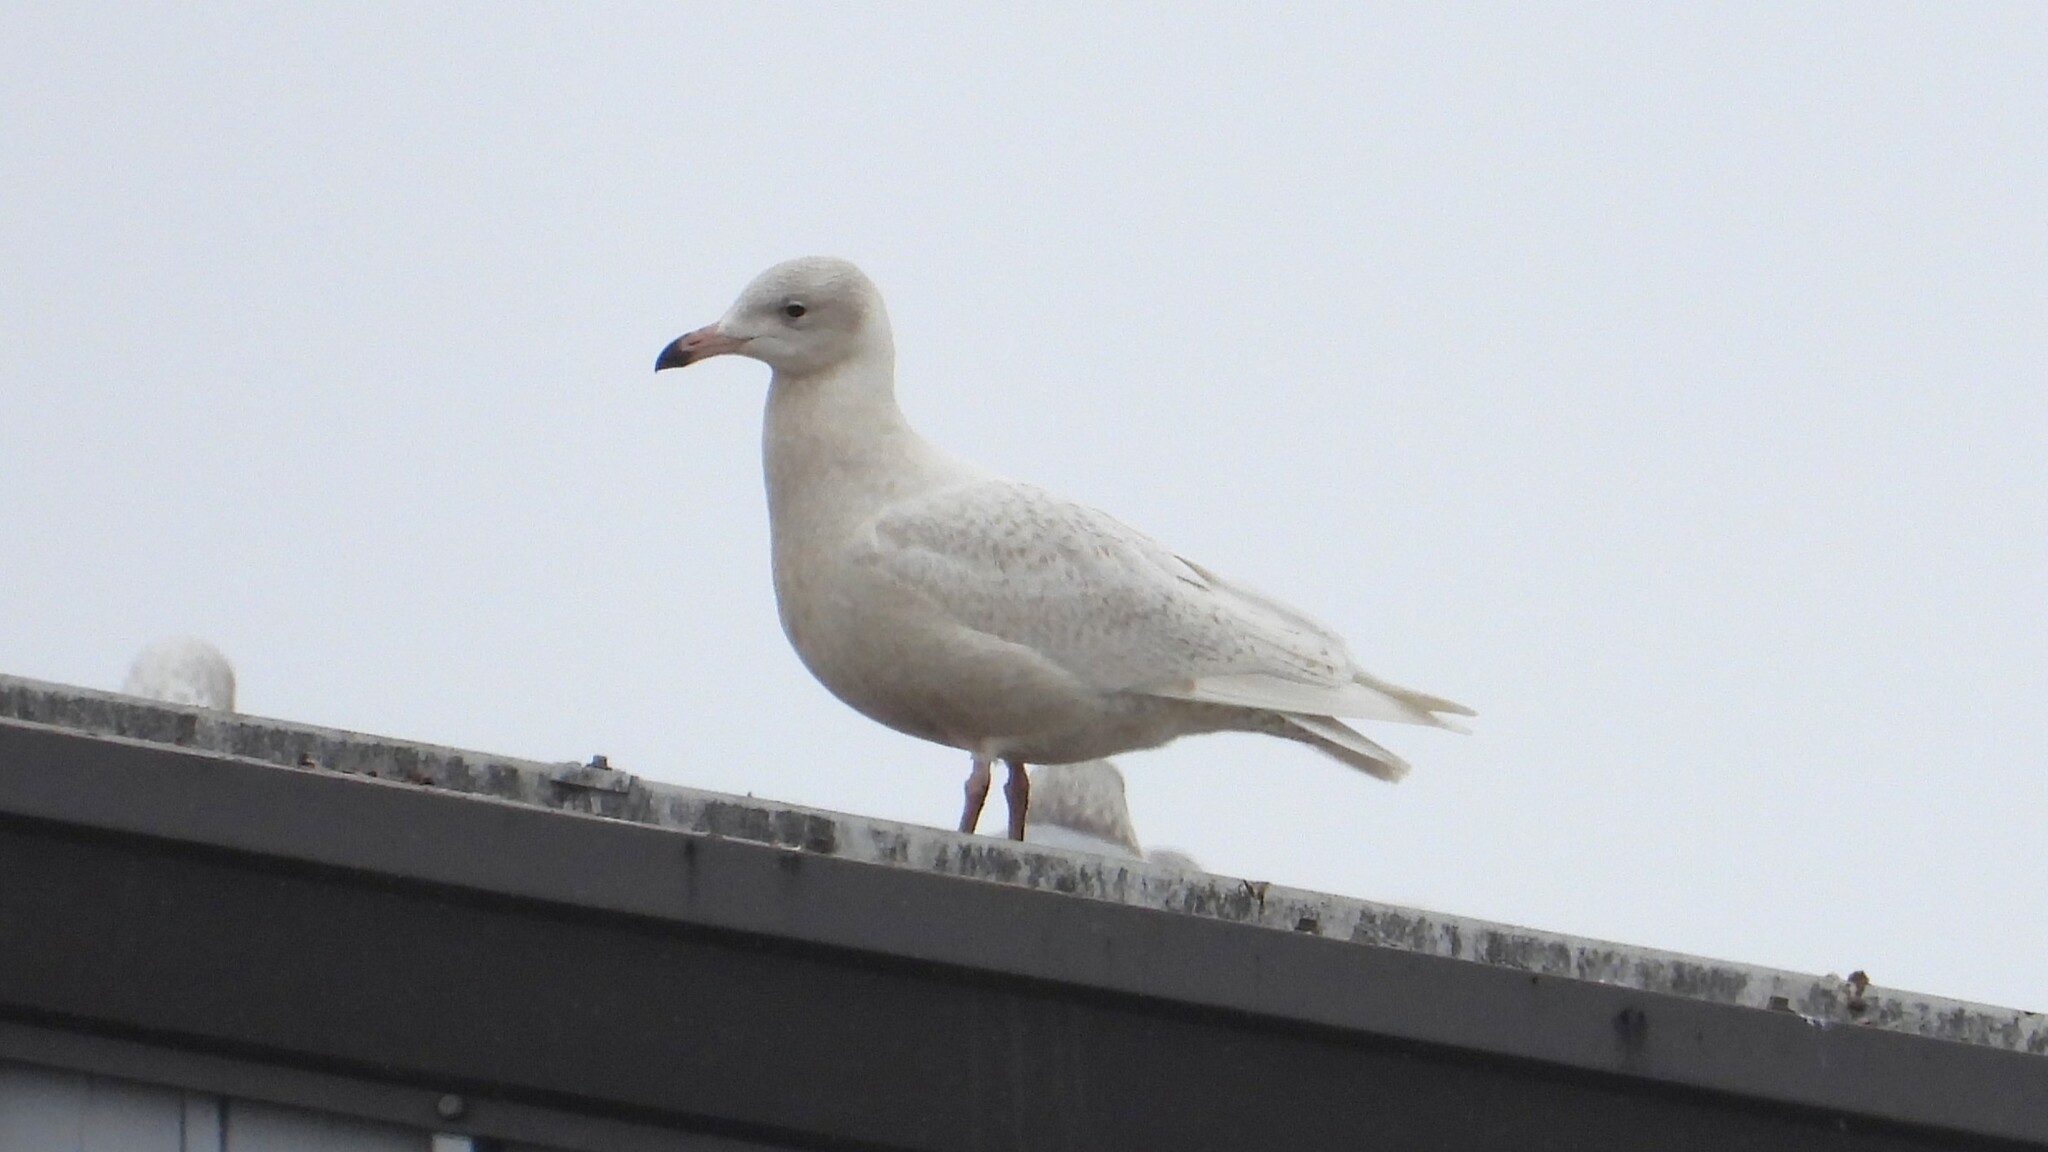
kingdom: Animalia
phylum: Chordata
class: Aves
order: Charadriiformes
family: Laridae
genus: Larus
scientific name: Larus hyperboreus
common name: Glaucous gull
